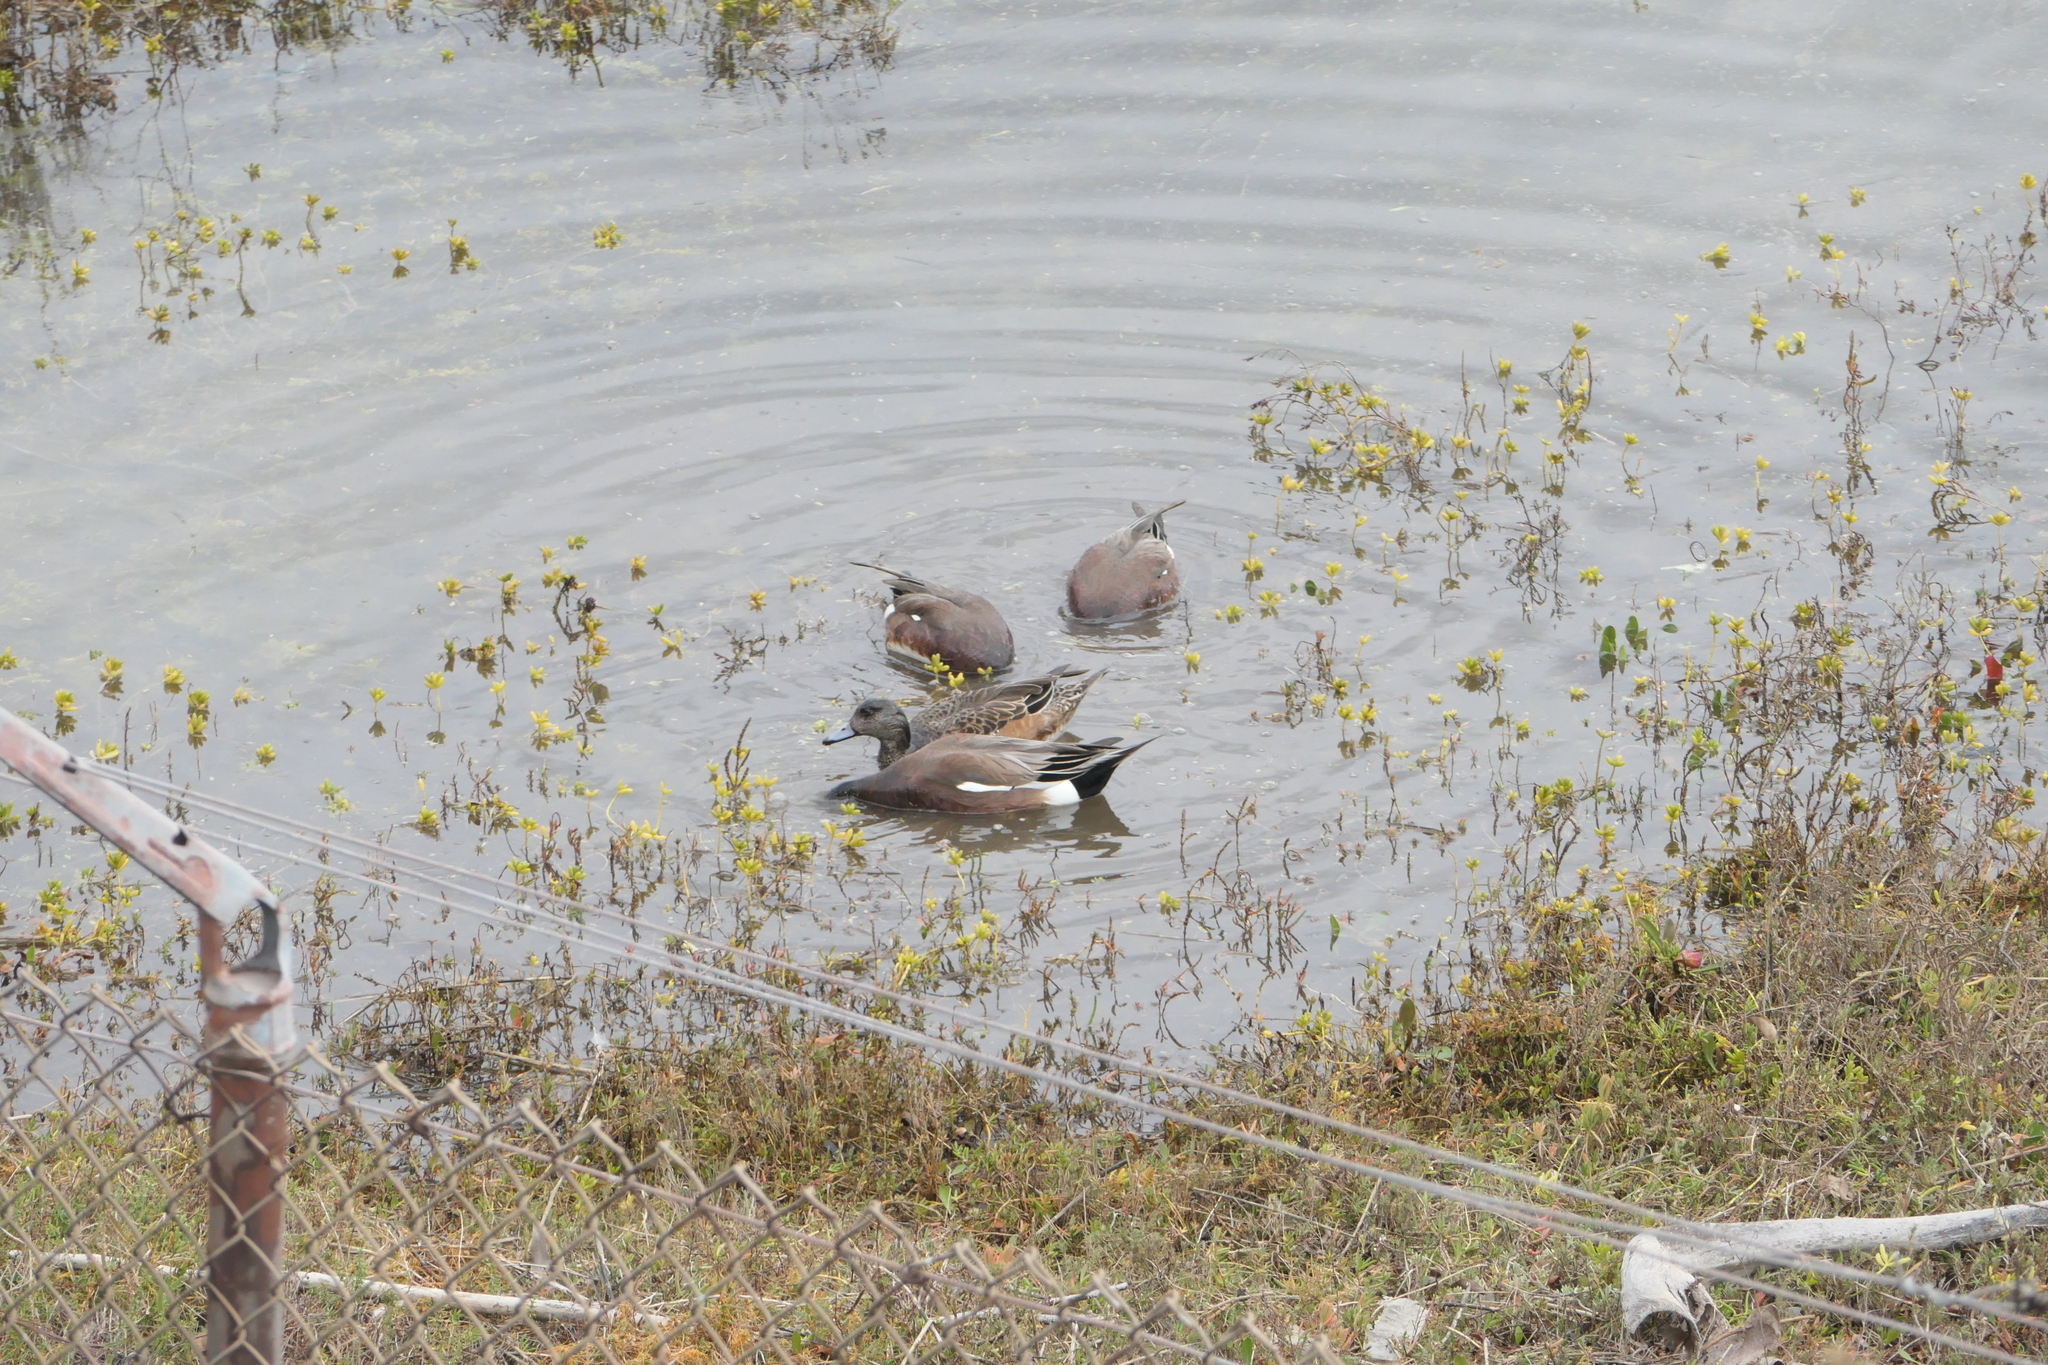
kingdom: Animalia
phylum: Chordata
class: Aves
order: Anseriformes
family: Anatidae
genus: Mareca
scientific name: Mareca americana
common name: American wigeon
